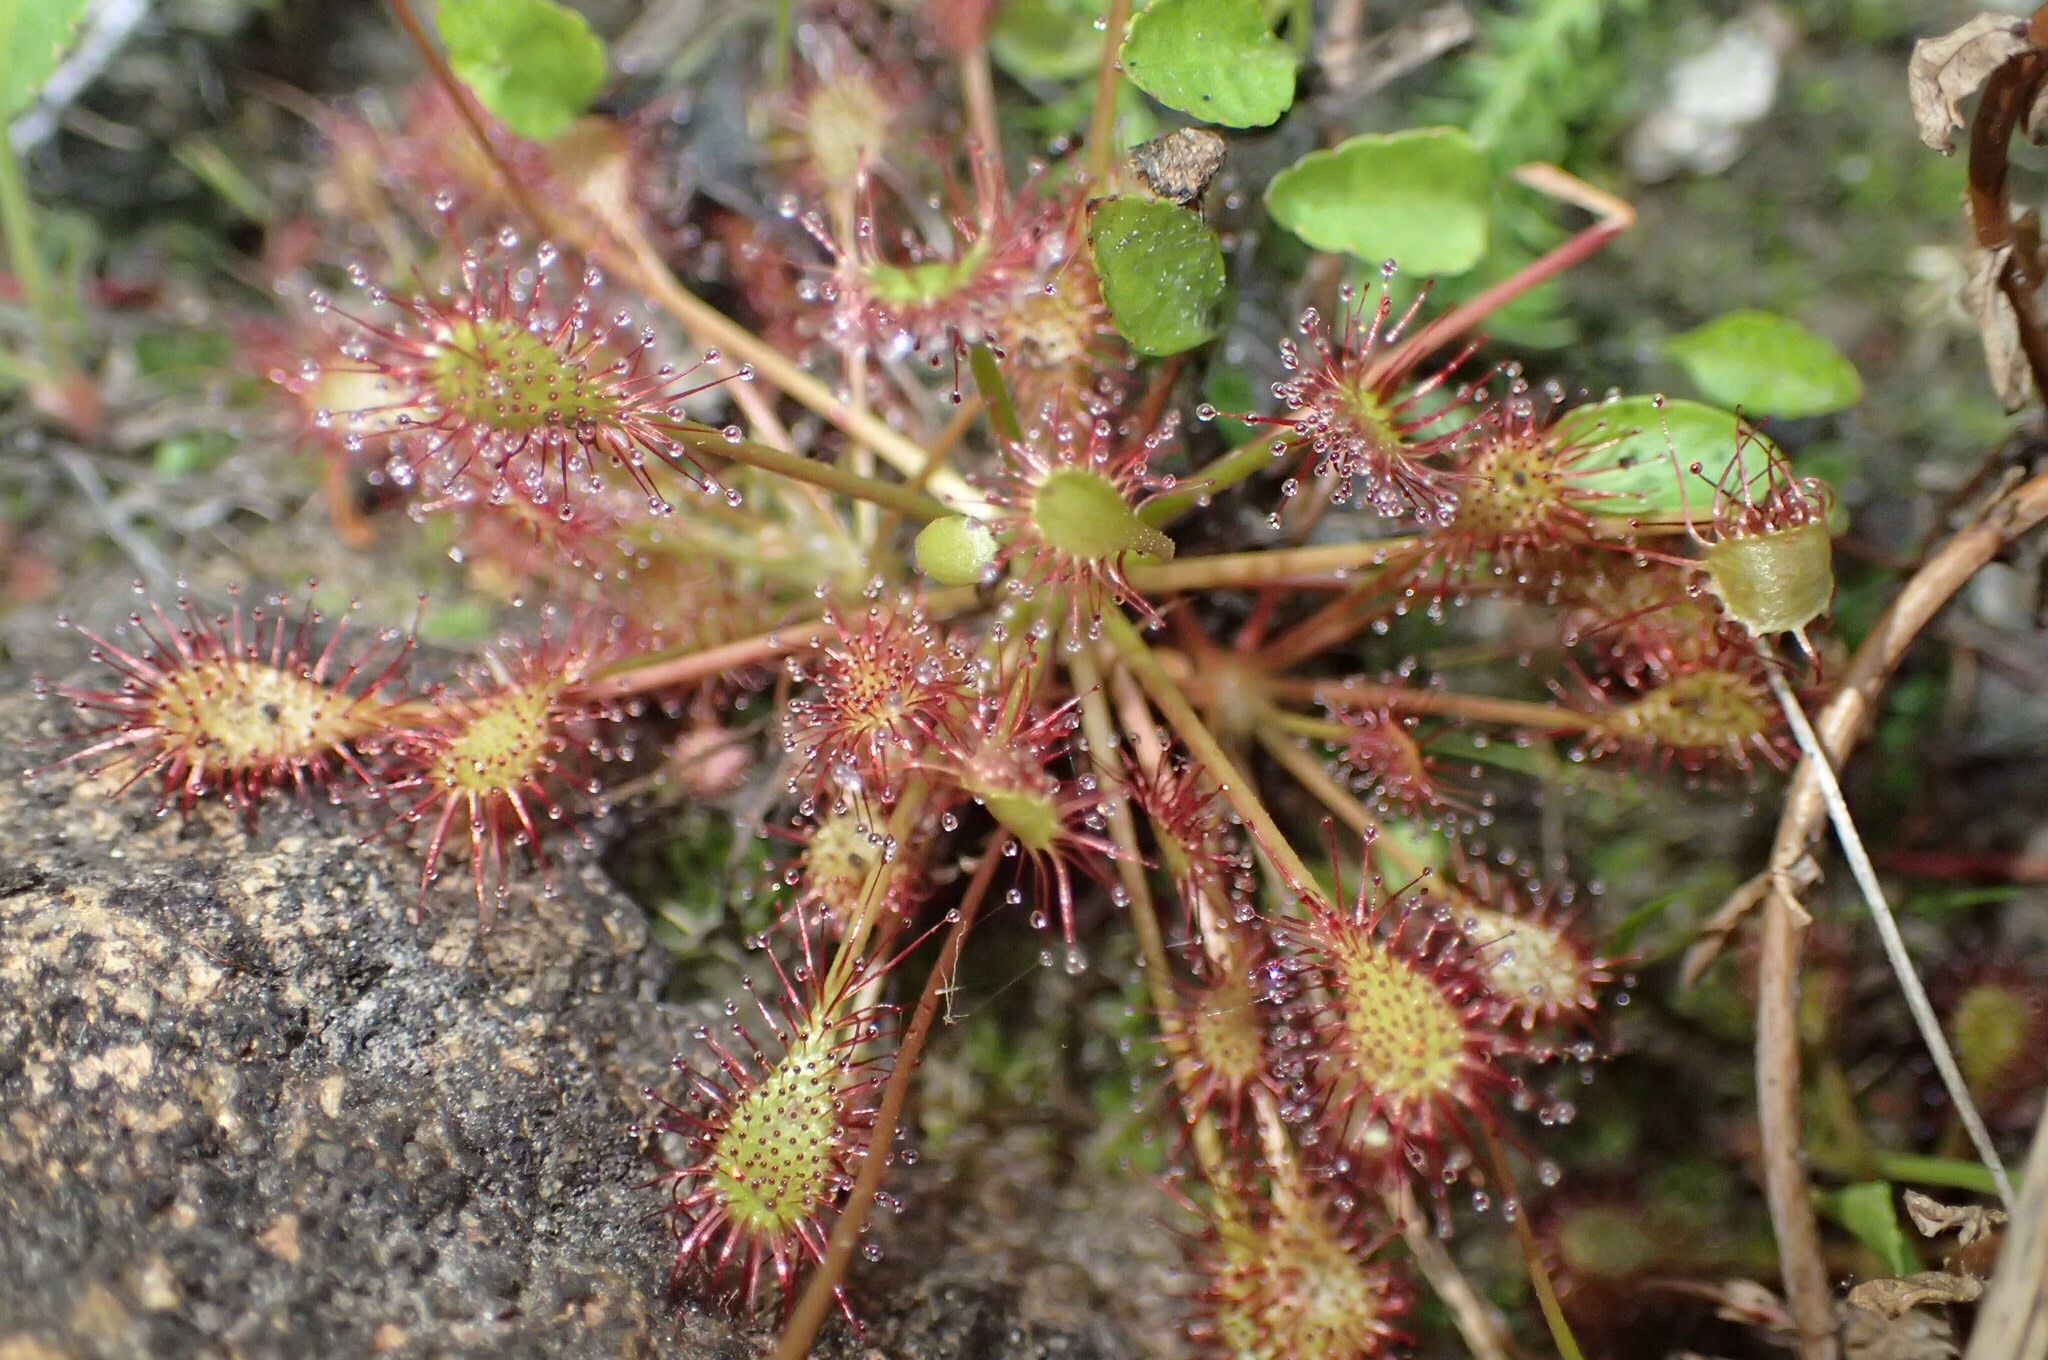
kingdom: Plantae
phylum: Tracheophyta
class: Magnoliopsida
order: Caryophyllales
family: Droseraceae
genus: Drosera
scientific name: Drosera intermedia
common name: Oblong-leaved sundew
